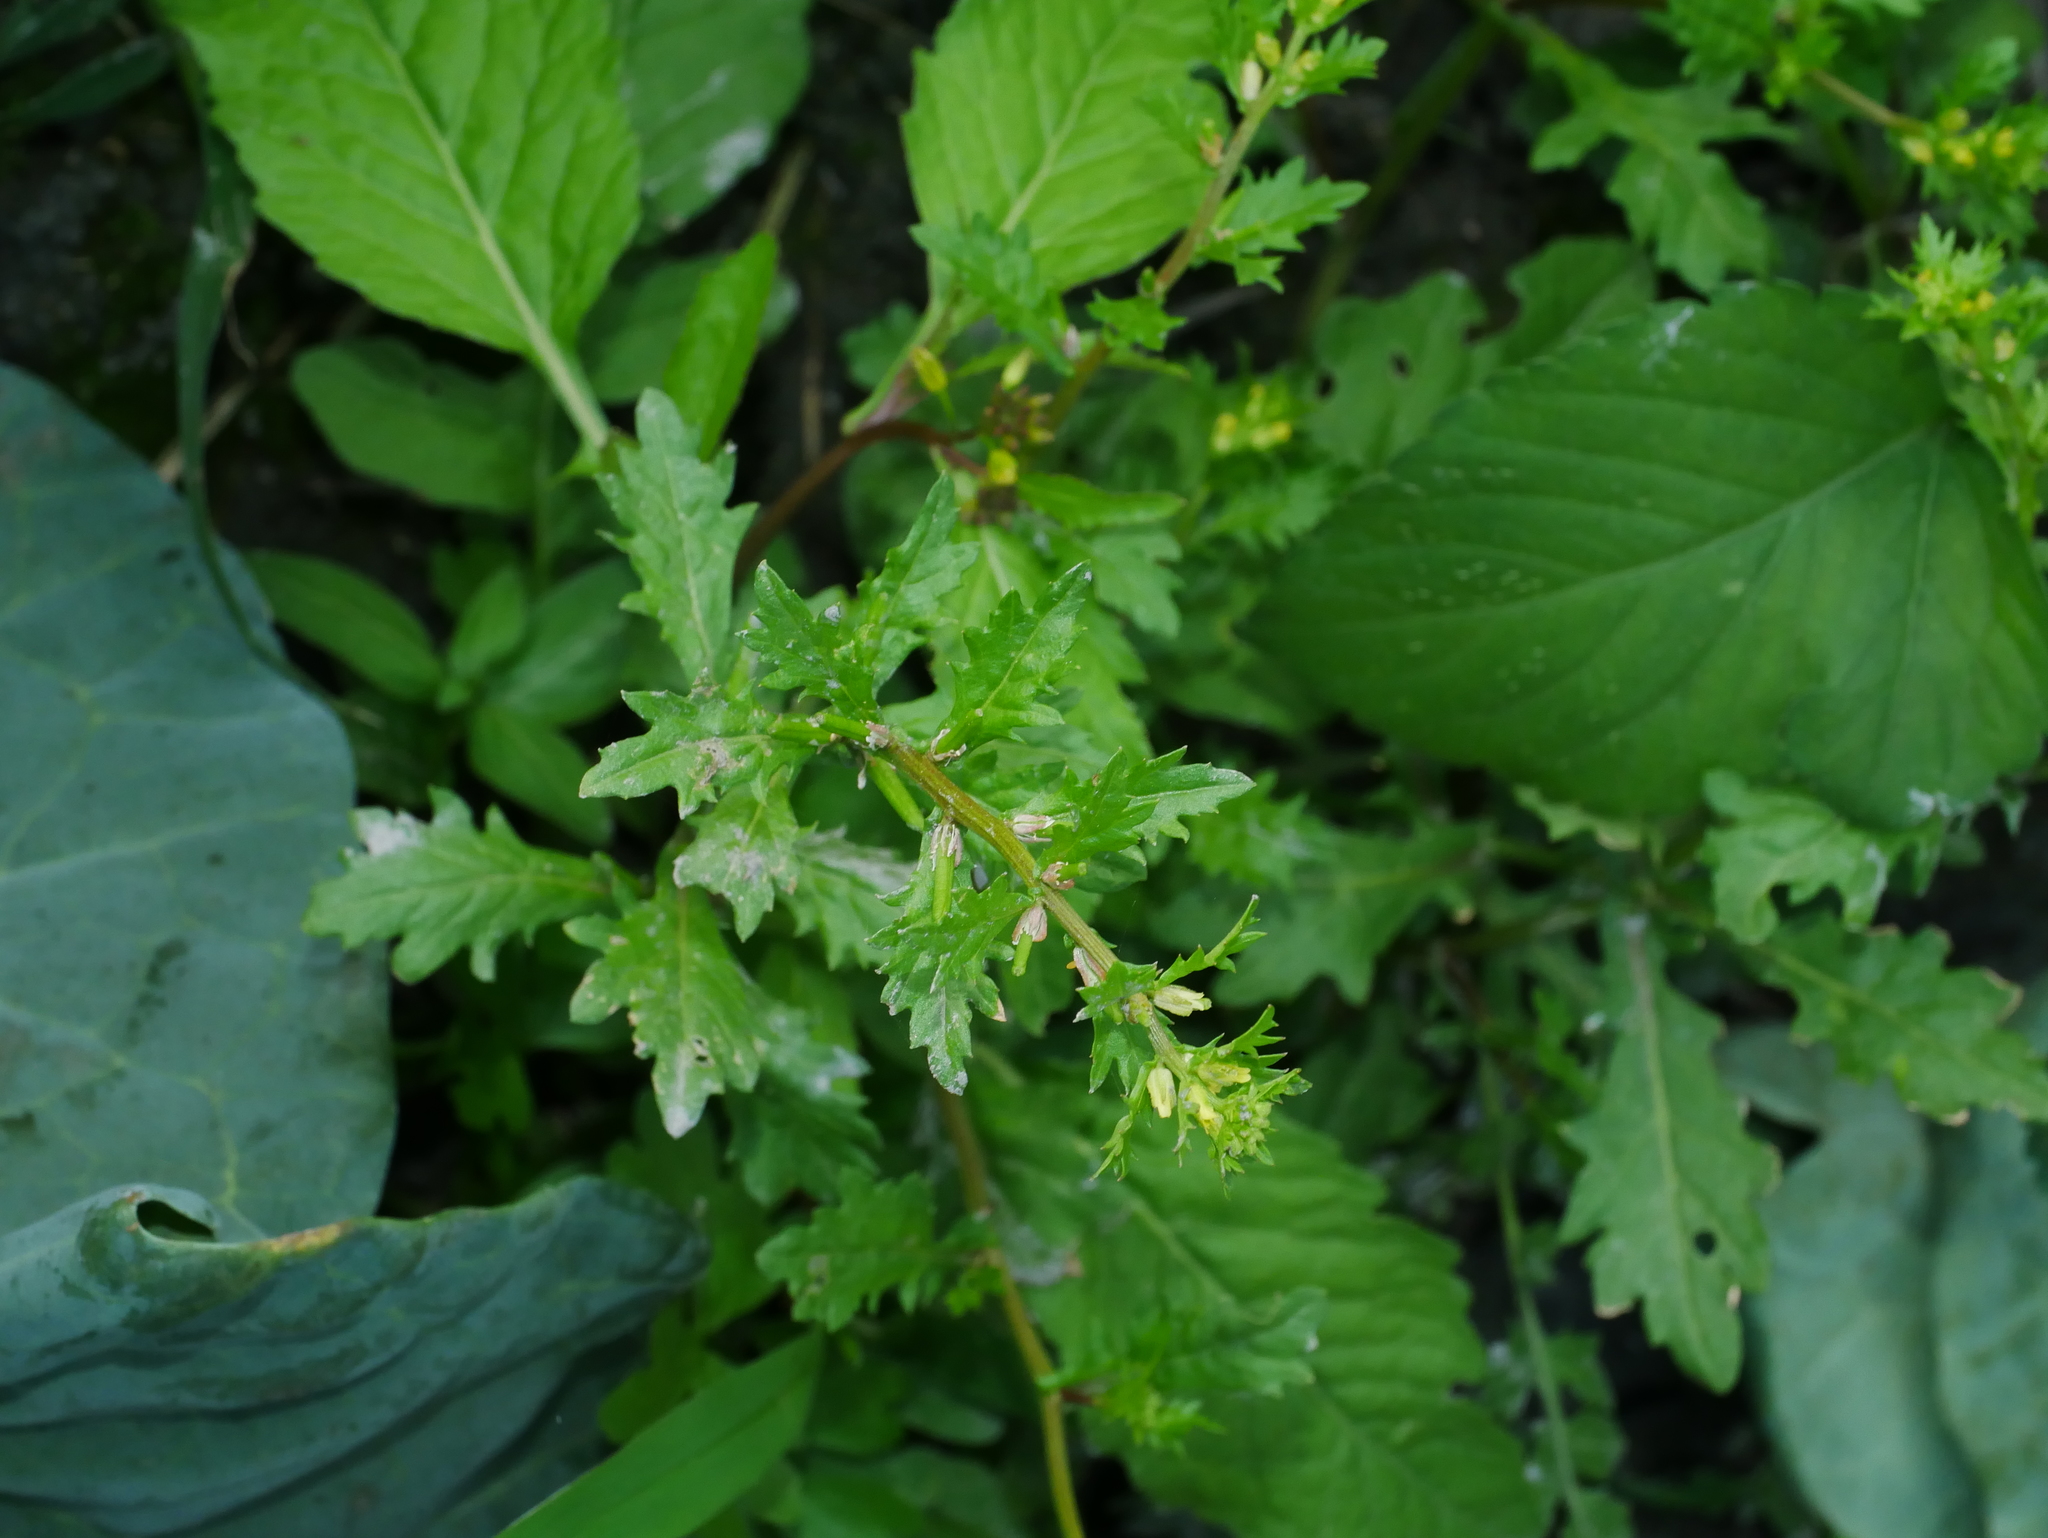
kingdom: Plantae
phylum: Tracheophyta
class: Magnoliopsida
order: Brassicales
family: Brassicaceae
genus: Rorippa
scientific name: Rorippa cantoniensis
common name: Chinese yellowcress
